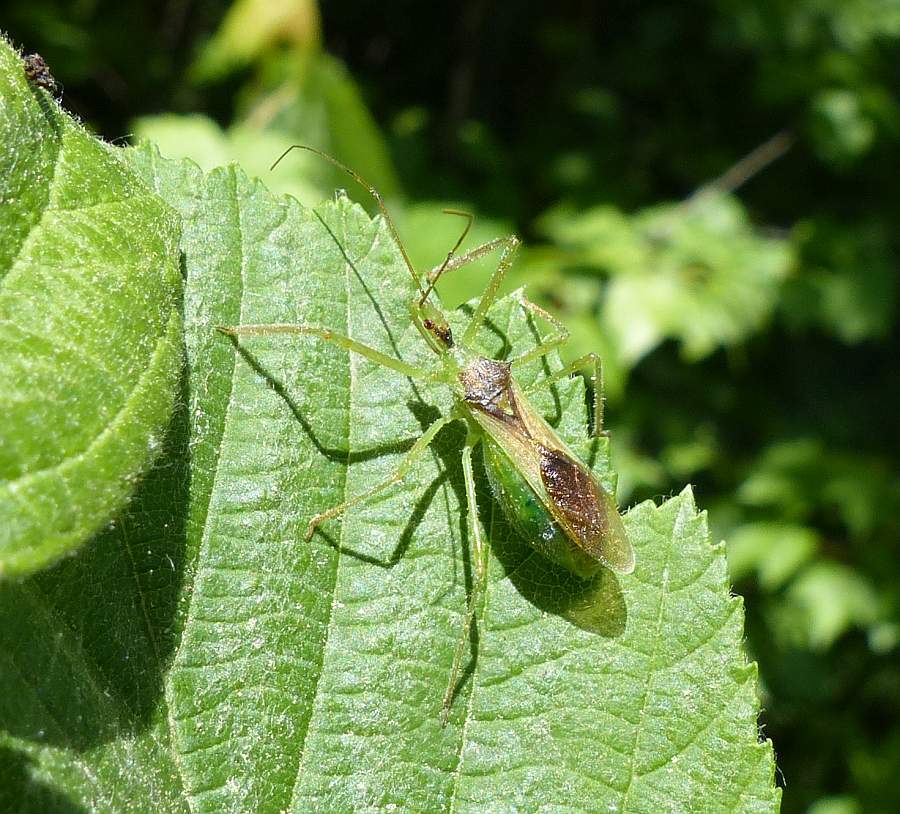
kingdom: Animalia
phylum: Arthropoda
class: Insecta
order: Hemiptera
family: Reduviidae
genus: Zelus
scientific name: Zelus luridus
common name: Pale green assassin bug
